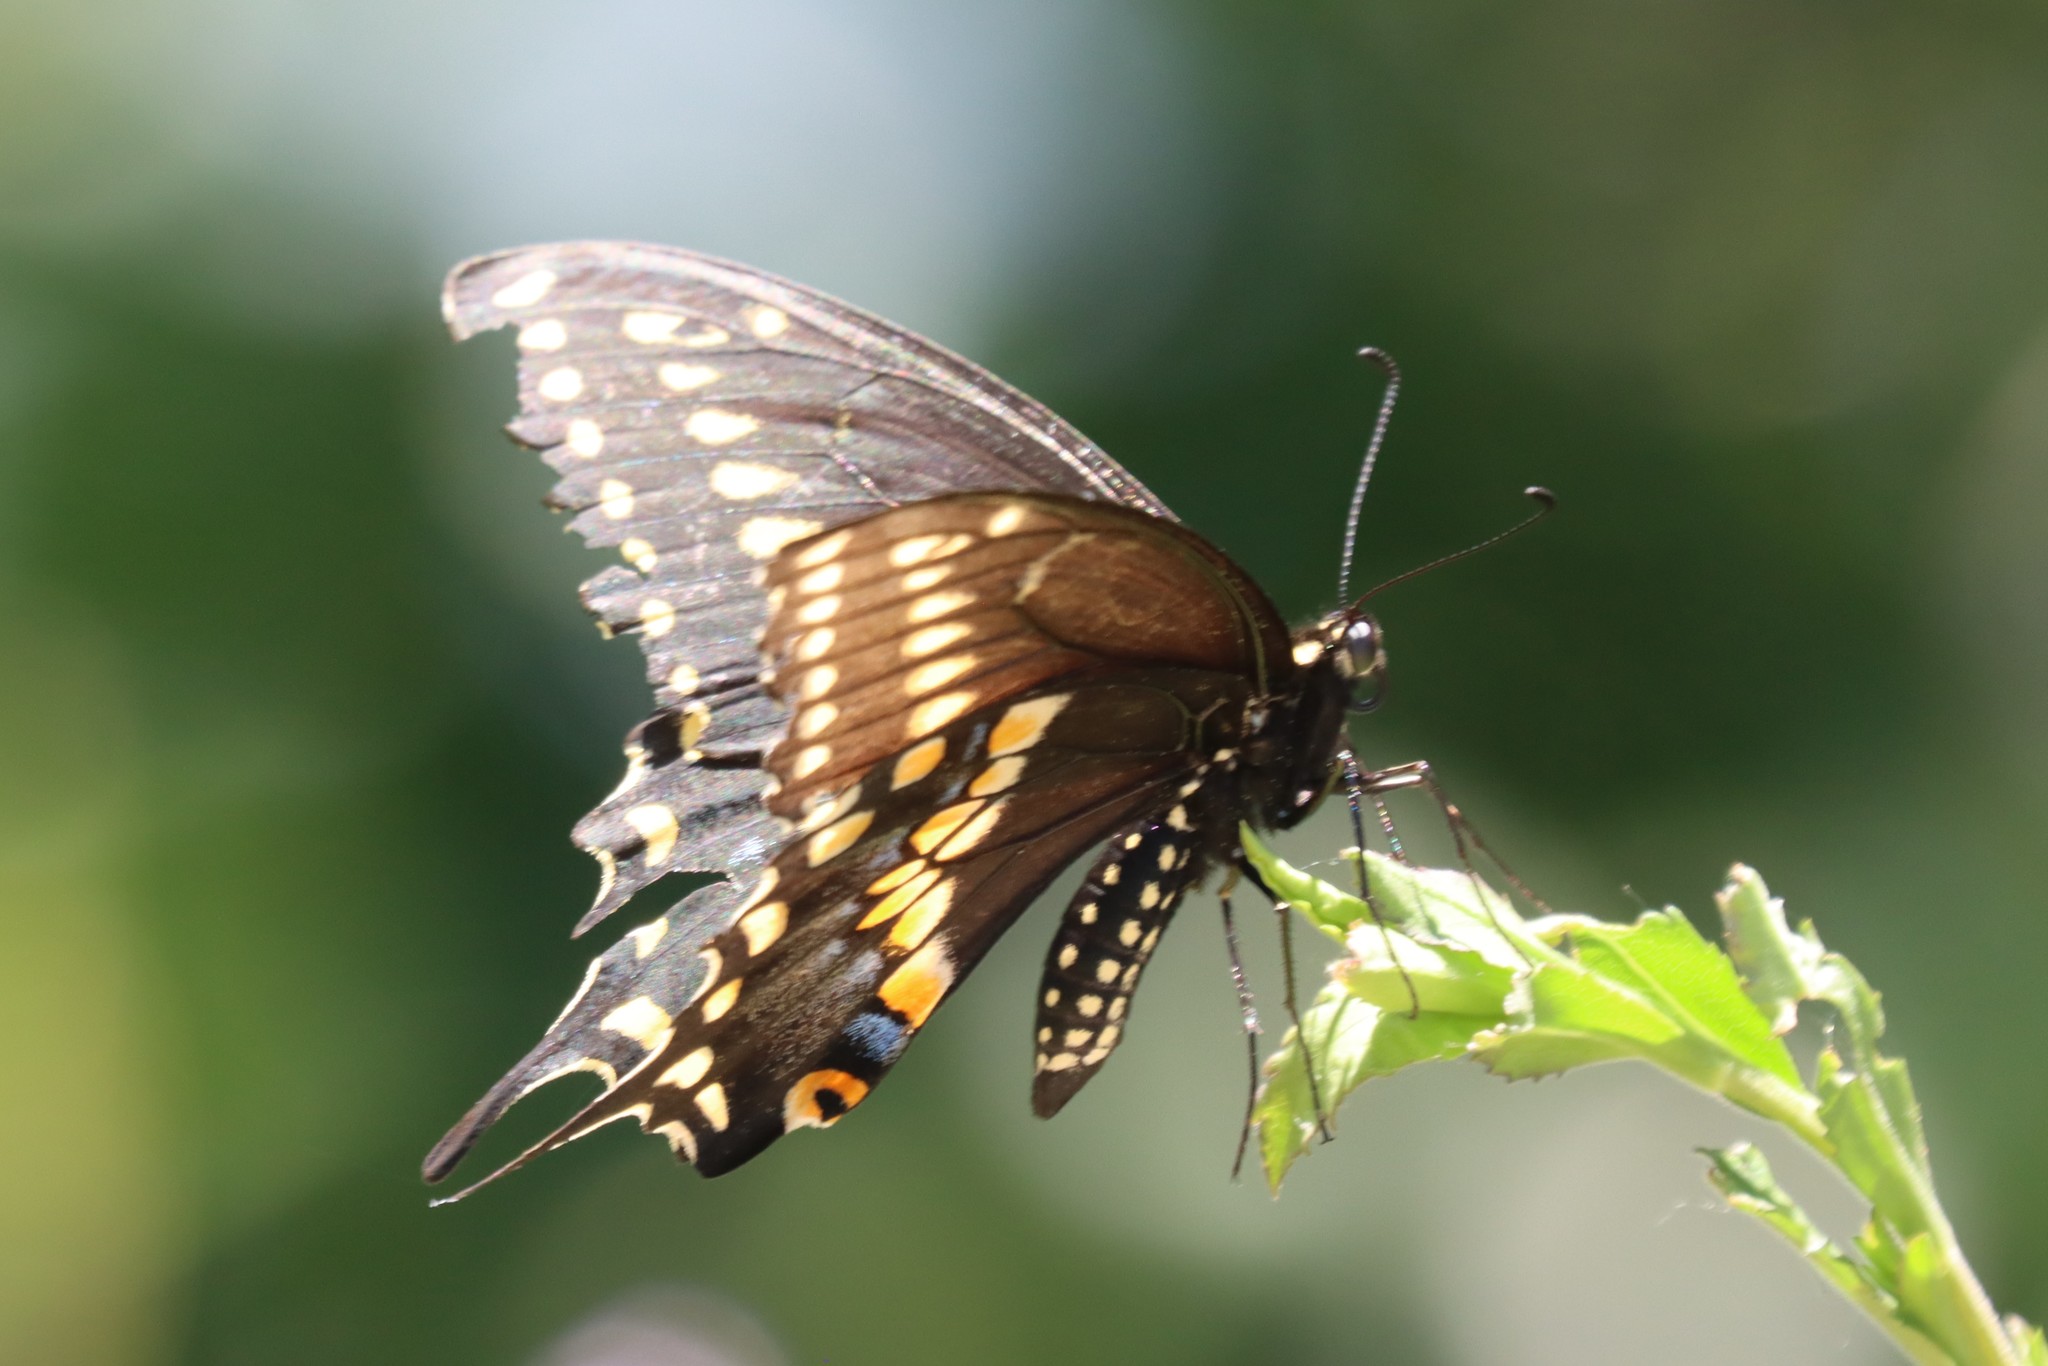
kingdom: Animalia
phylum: Arthropoda
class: Insecta
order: Lepidoptera
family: Papilionidae
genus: Papilio
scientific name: Papilio polyxenes
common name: Black swallowtail
